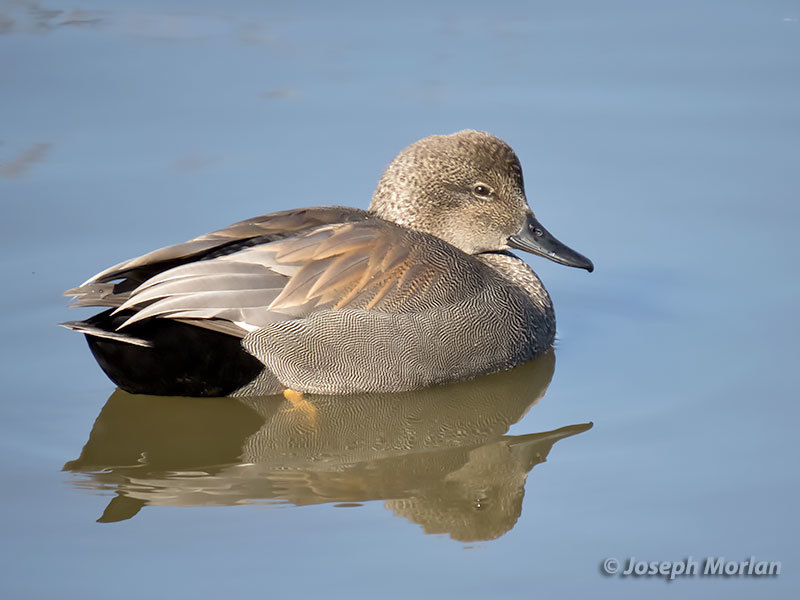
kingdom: Animalia
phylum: Chordata
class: Aves
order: Anseriformes
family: Anatidae
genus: Mareca
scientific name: Mareca strepera
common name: Gadwall
